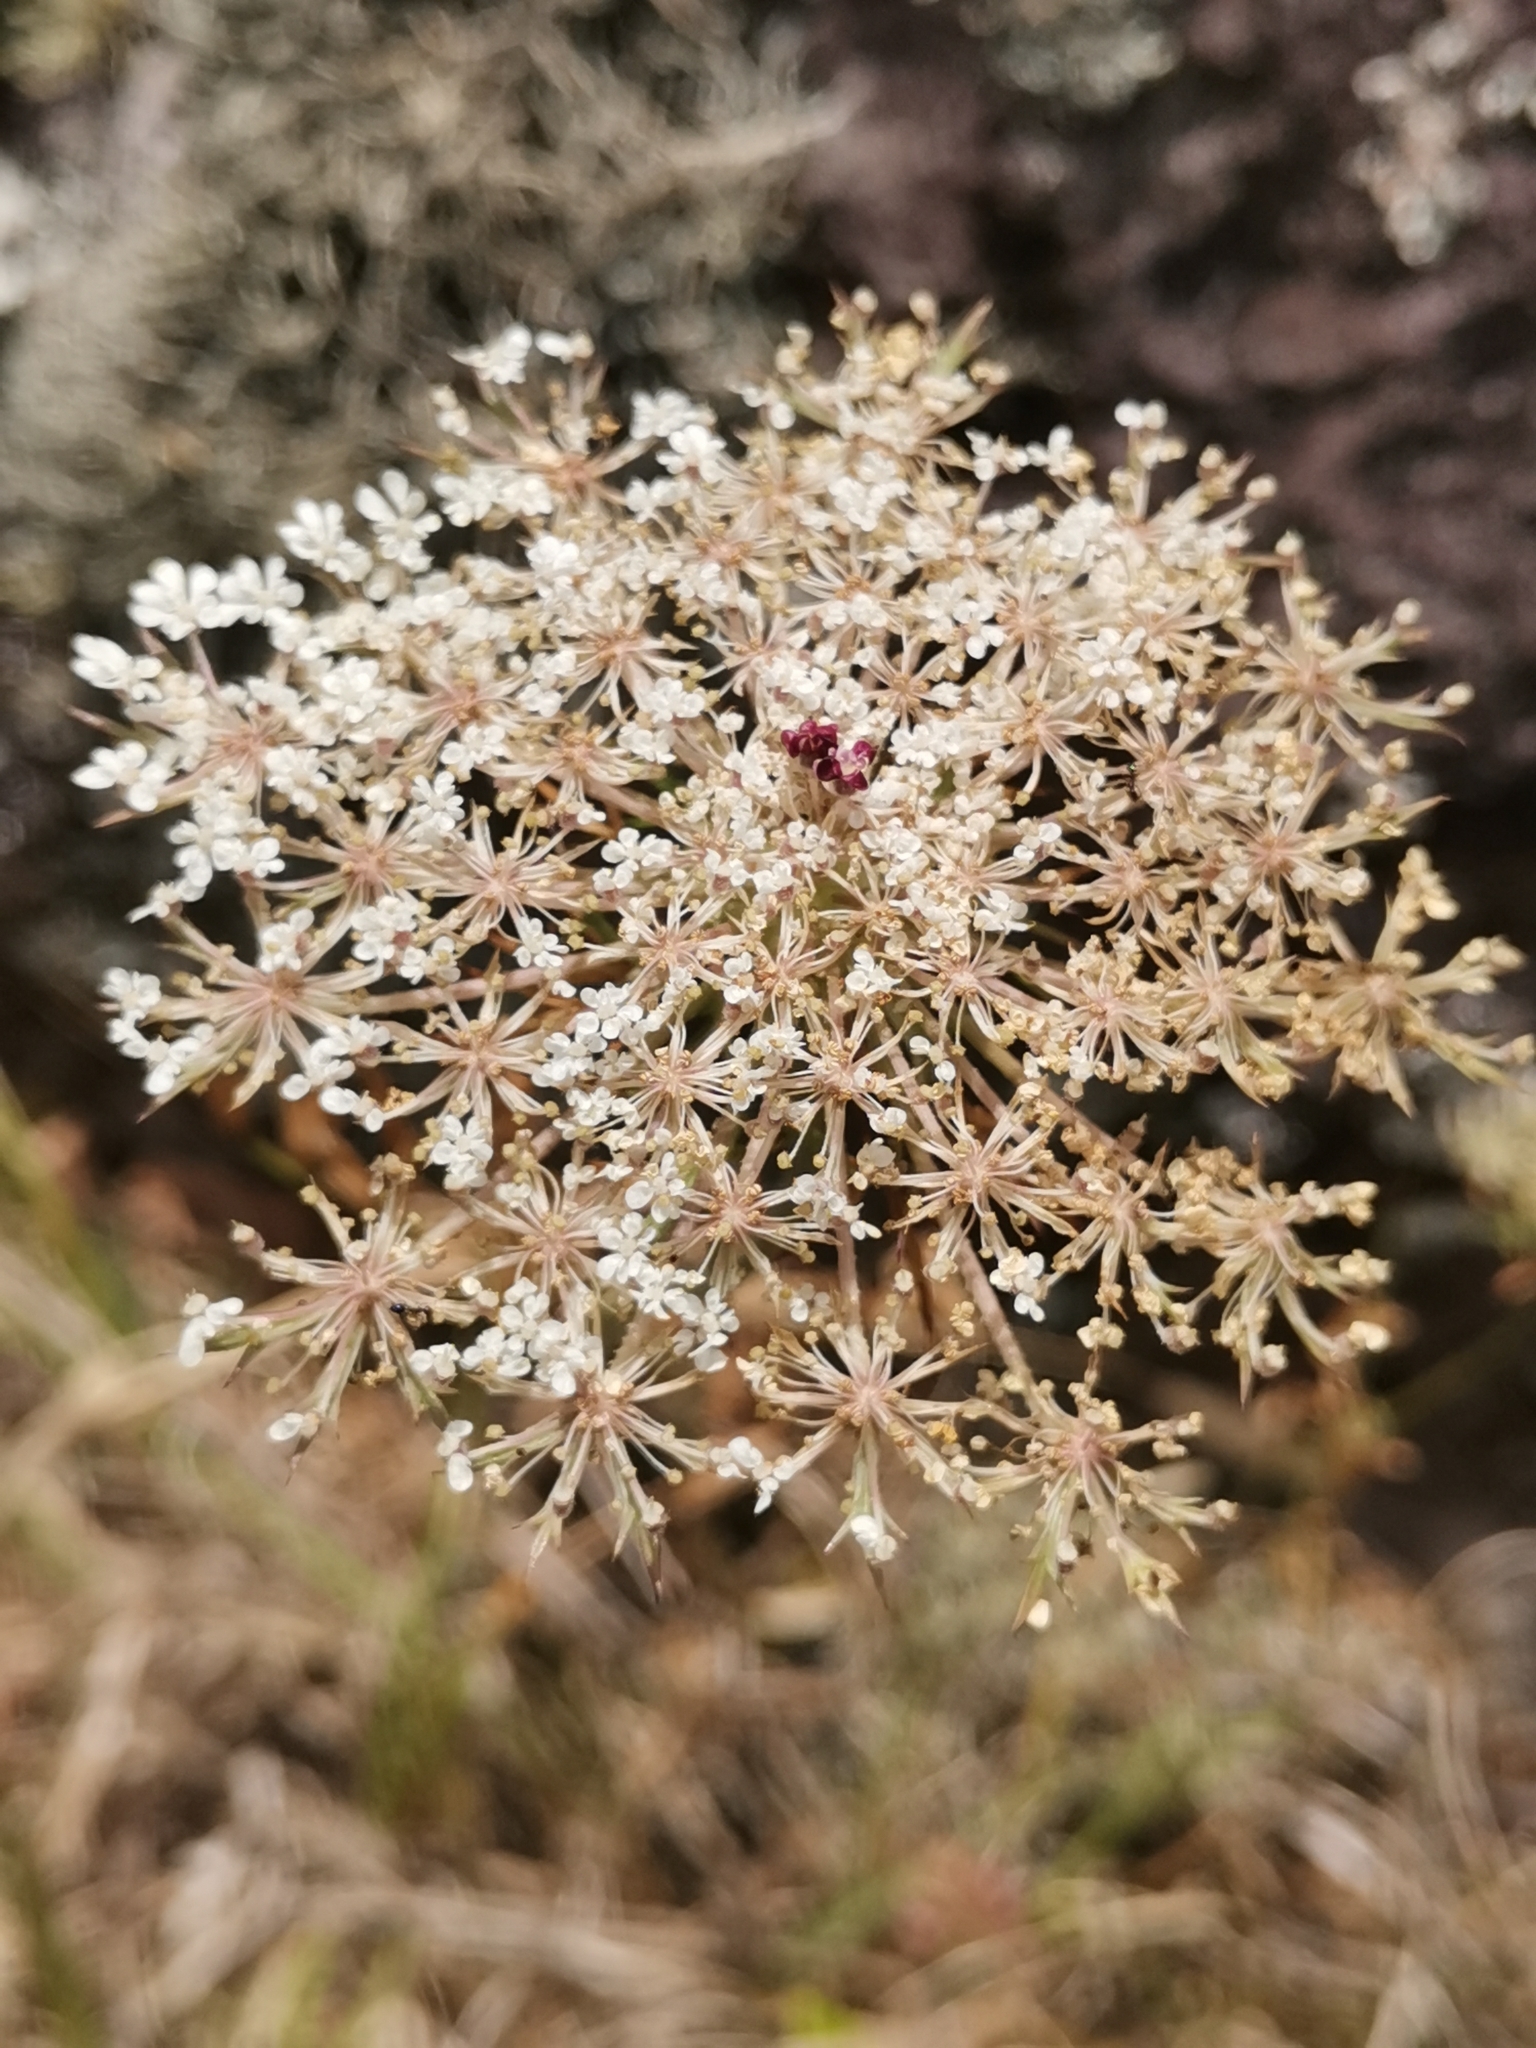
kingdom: Plantae
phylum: Tracheophyta
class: Magnoliopsida
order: Apiales
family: Apiaceae
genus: Daucus
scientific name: Daucus carota
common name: Wild carrot
